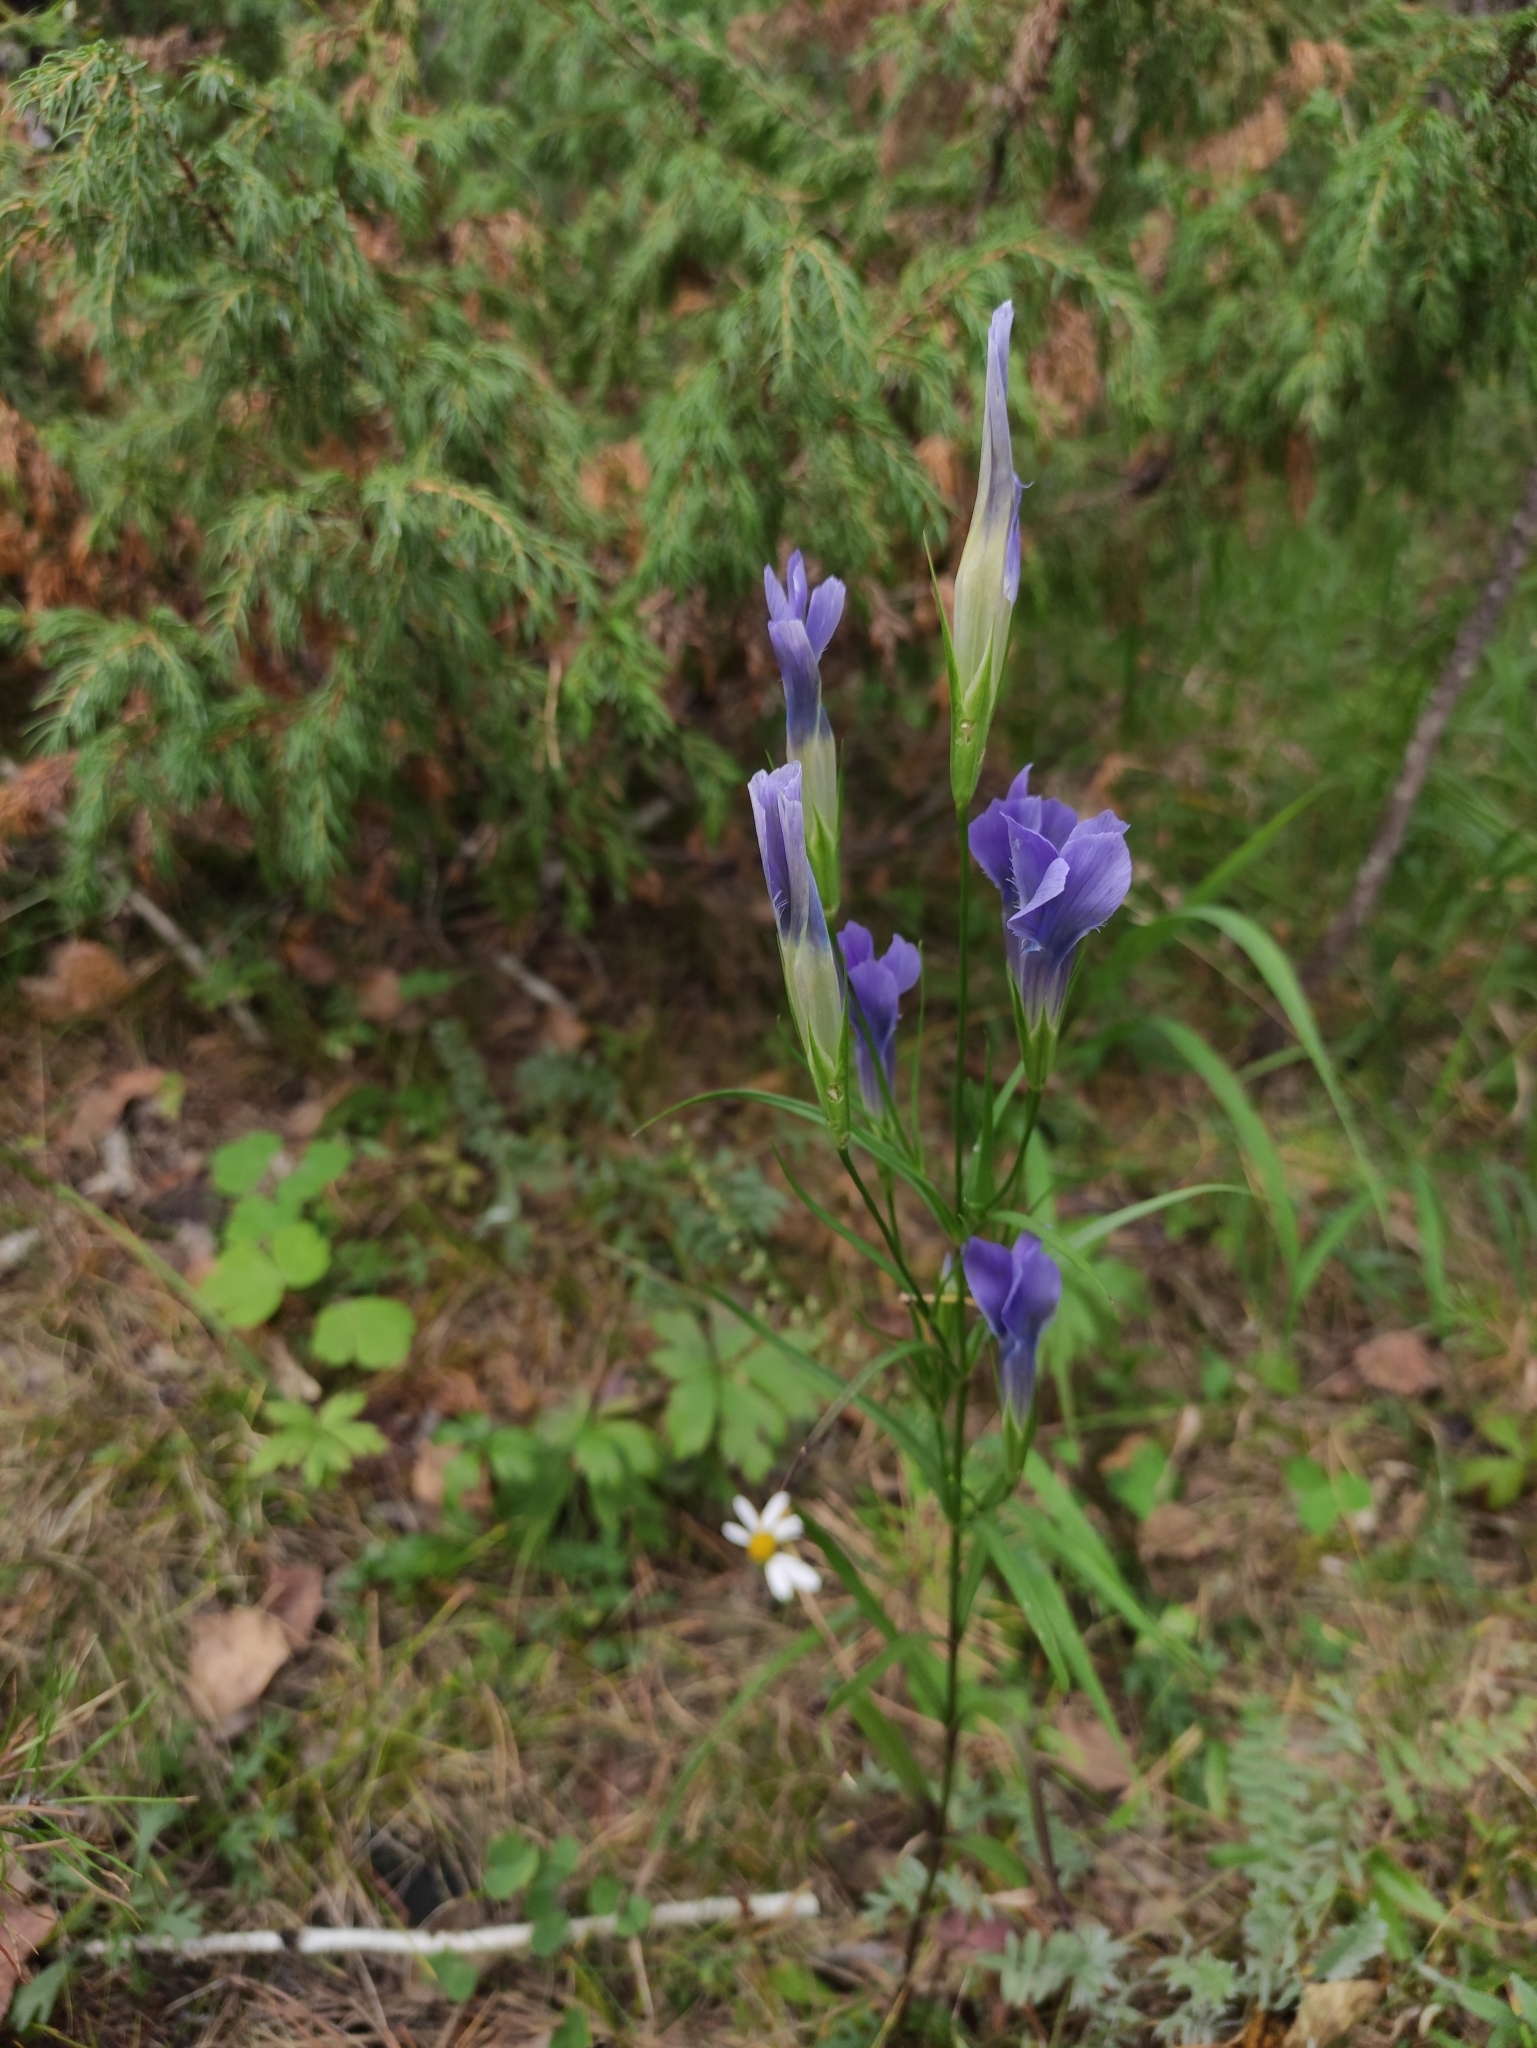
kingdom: Plantae
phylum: Tracheophyta
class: Magnoliopsida
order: Gentianales
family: Gentianaceae
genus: Gentianopsis
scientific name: Gentianopsis barbata
